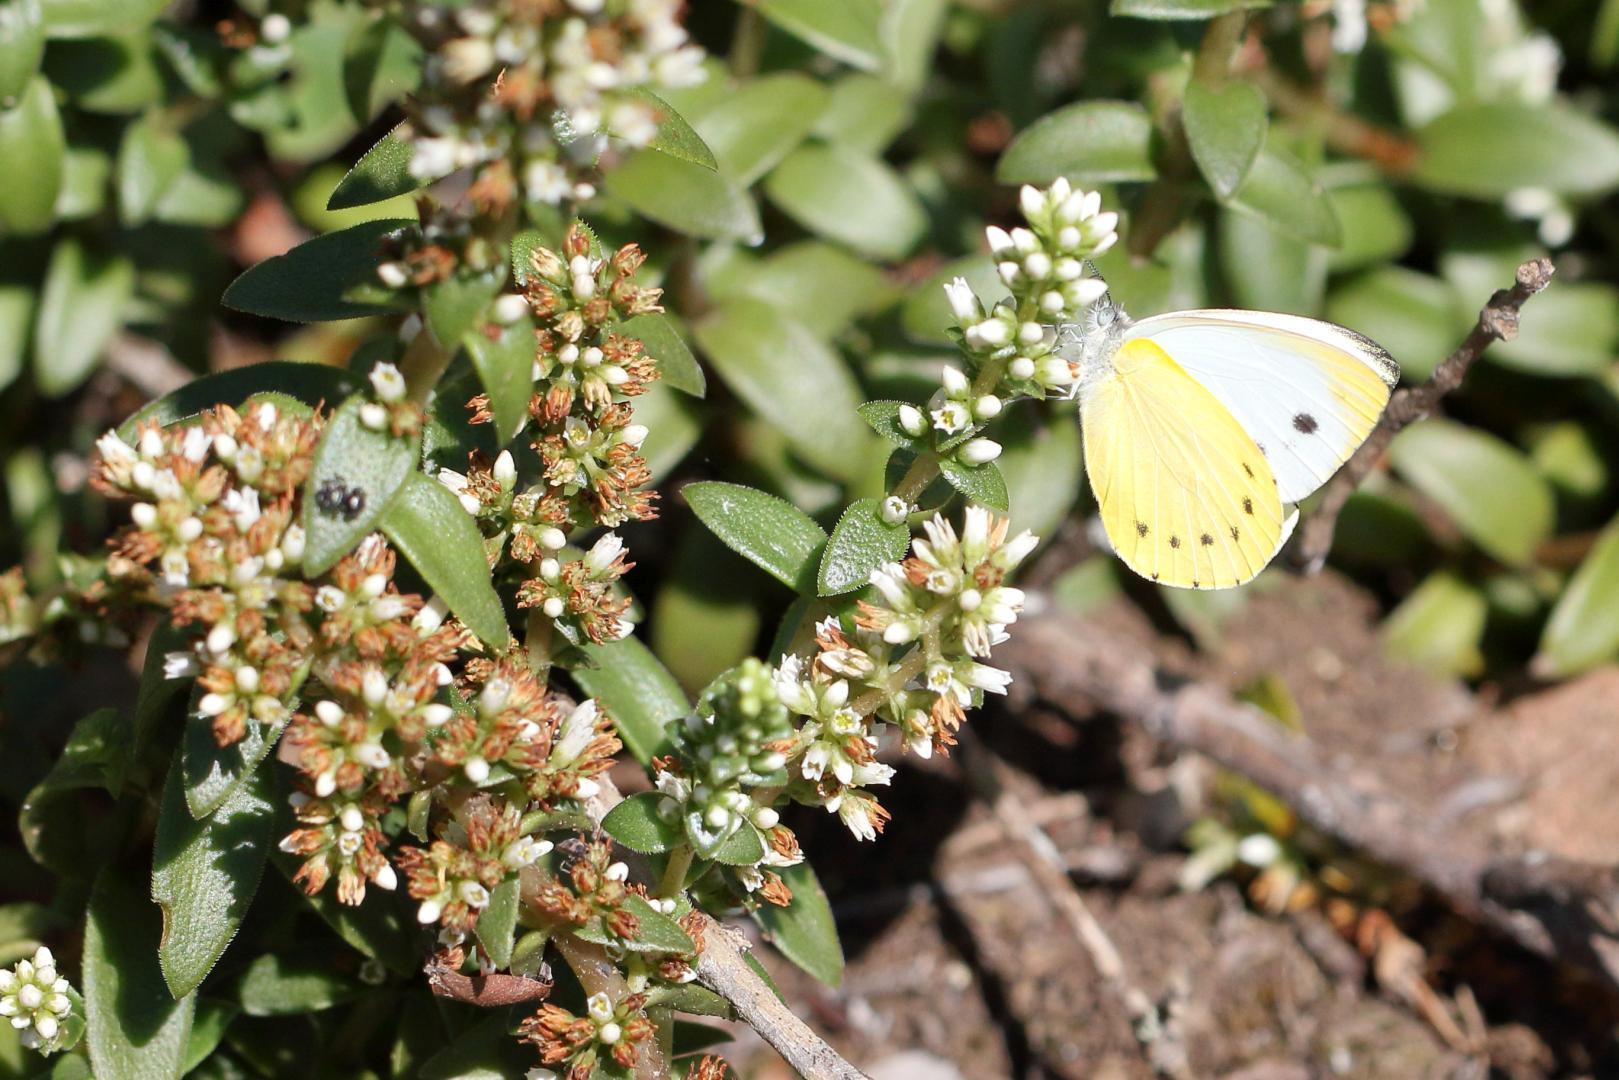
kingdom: Animalia
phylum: Arthropoda
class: Insecta
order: Lepidoptera
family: Pieridae
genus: Dixeia
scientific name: Dixeia pigea
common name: Ant-heap small white
